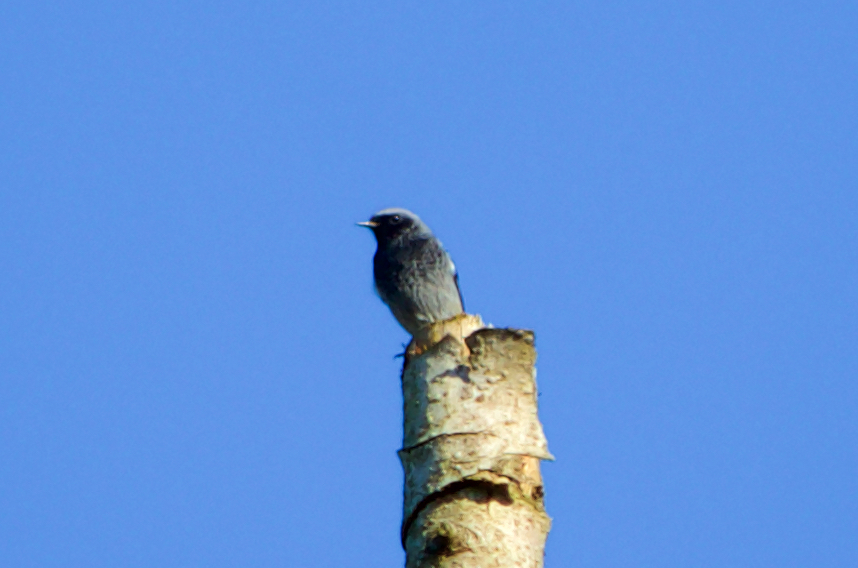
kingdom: Animalia
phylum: Chordata
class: Aves
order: Passeriformes
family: Muscicapidae
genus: Phoenicurus
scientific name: Phoenicurus ochruros
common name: Black redstart
